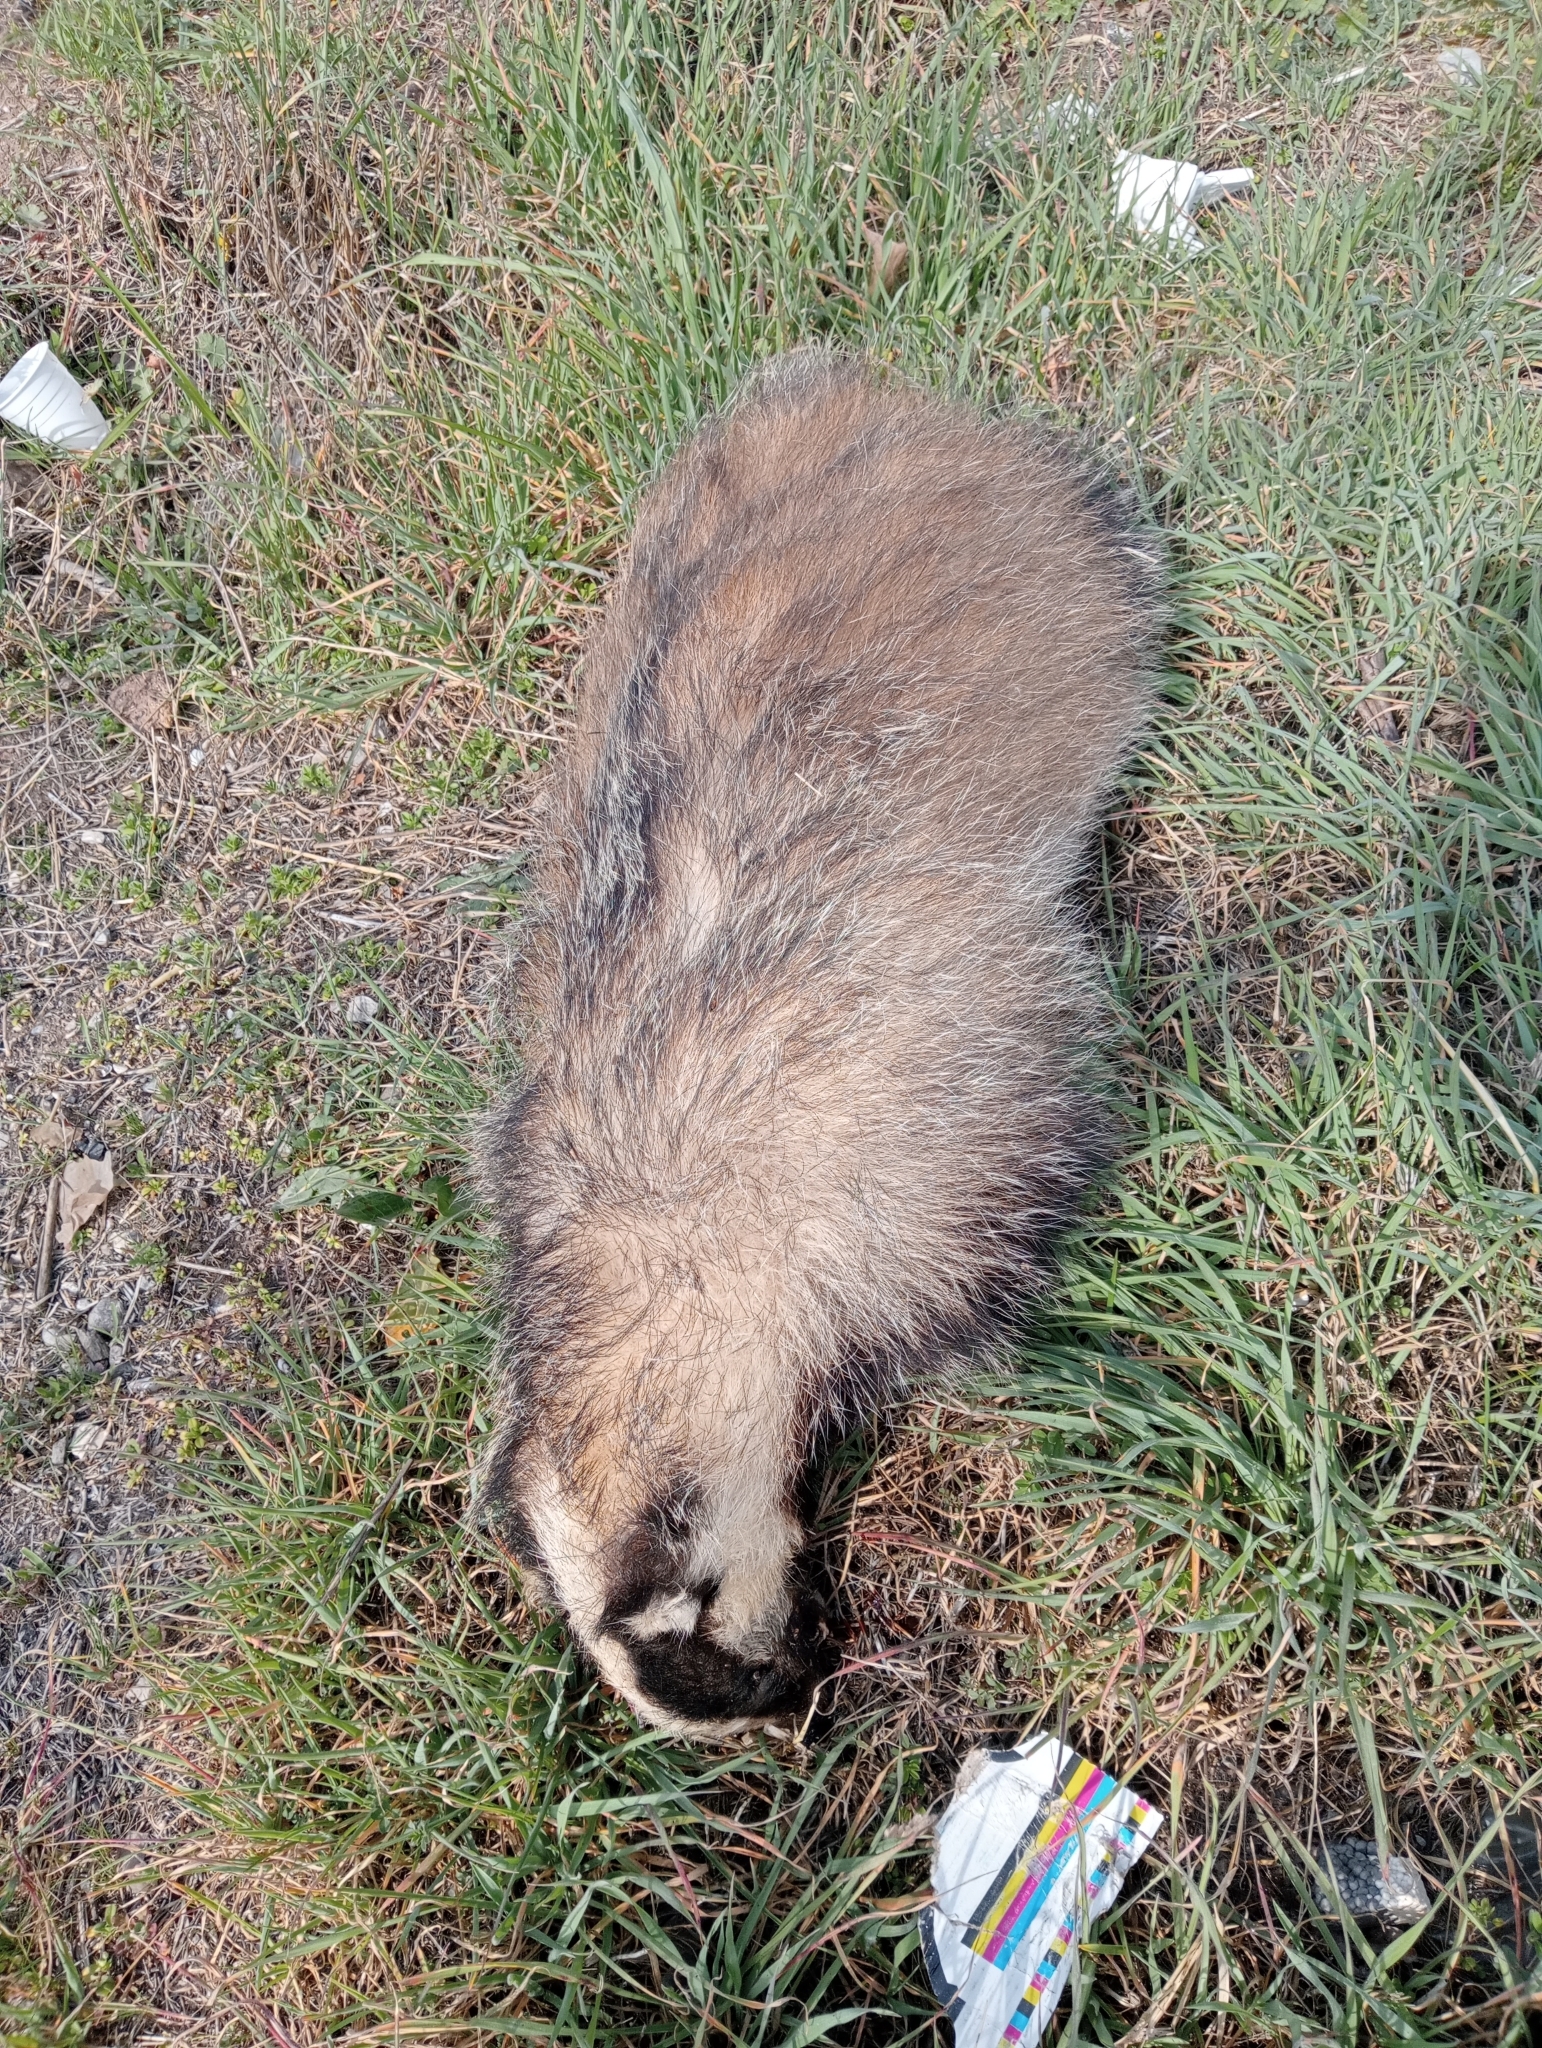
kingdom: Animalia
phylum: Chordata
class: Mammalia
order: Carnivora
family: Mustelidae
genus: Meles
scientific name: Meles meles
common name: Eurasian badger
